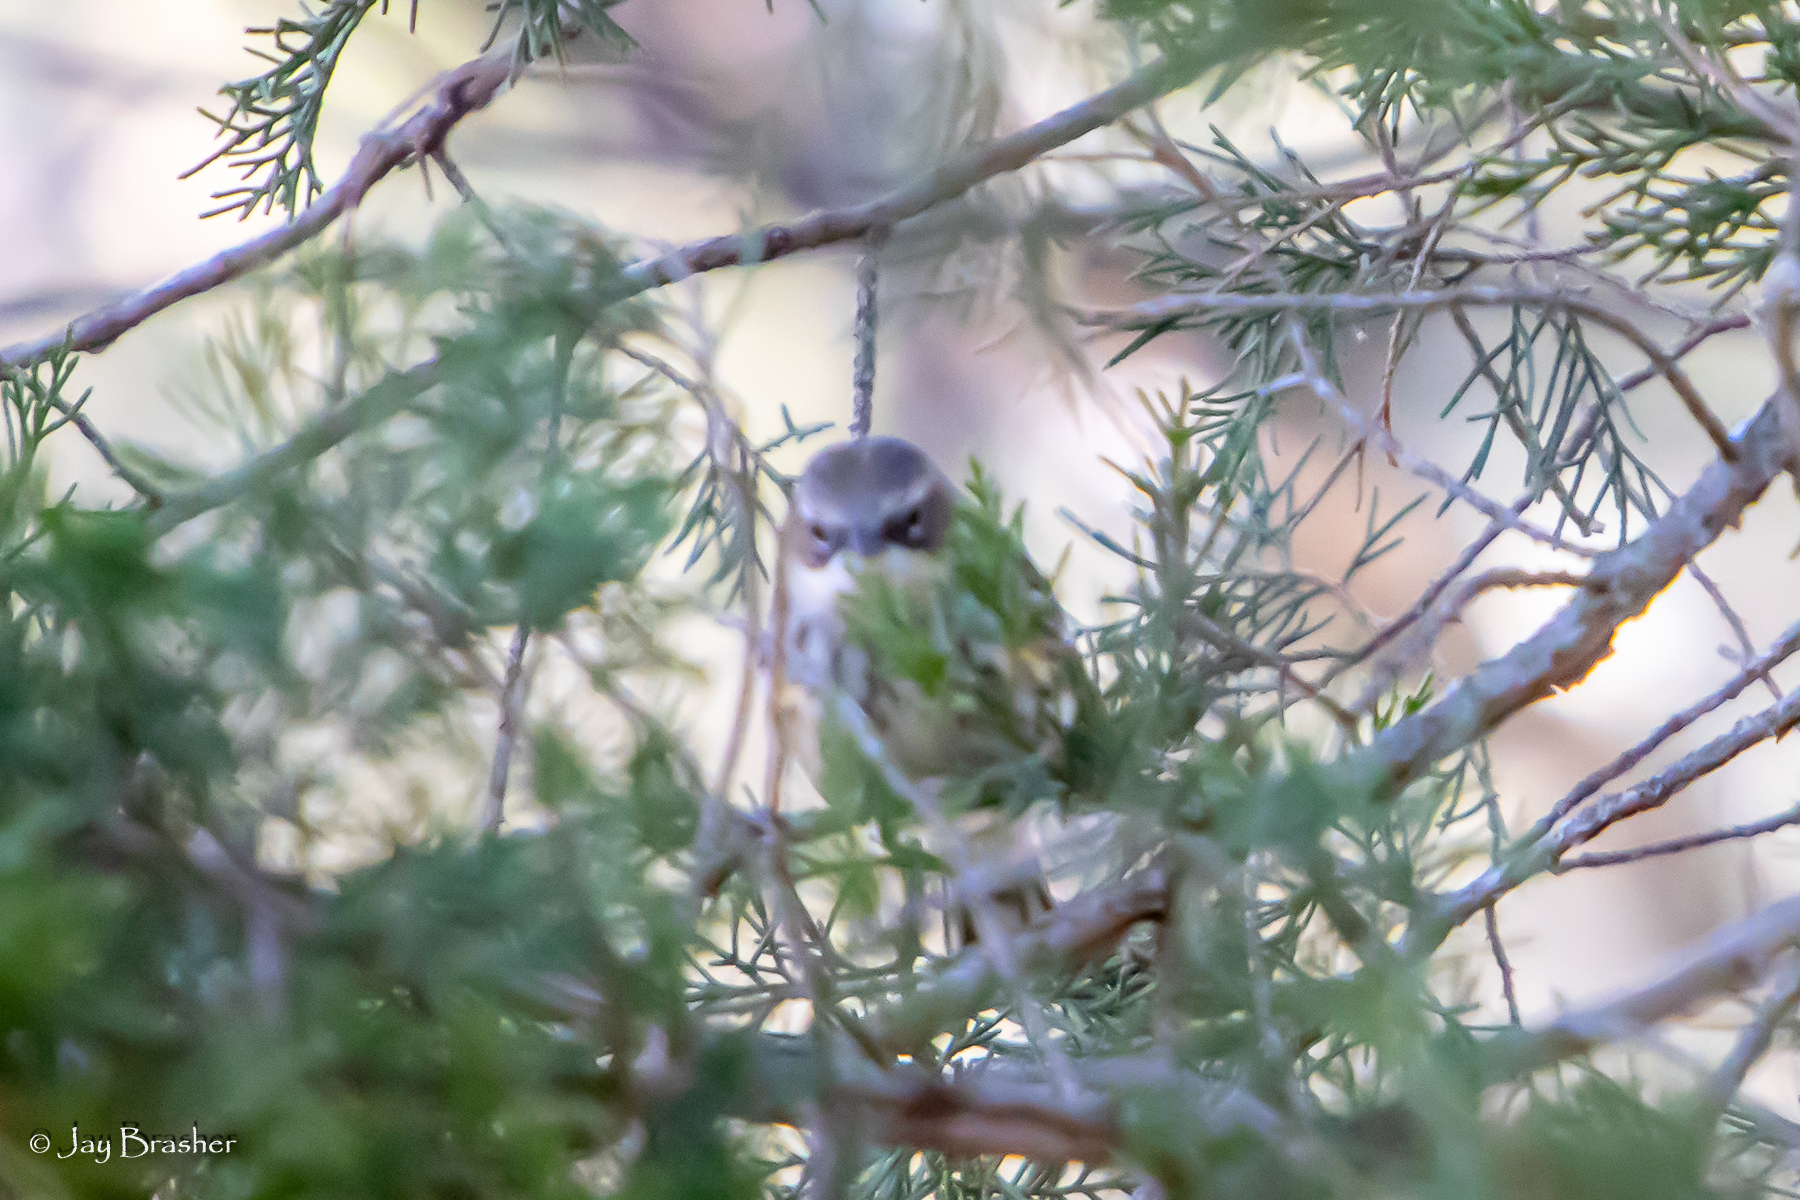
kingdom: Animalia
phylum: Chordata
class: Aves
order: Passeriformes
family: Parulidae
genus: Setophaga
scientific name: Setophaga coronata
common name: Myrtle warbler
